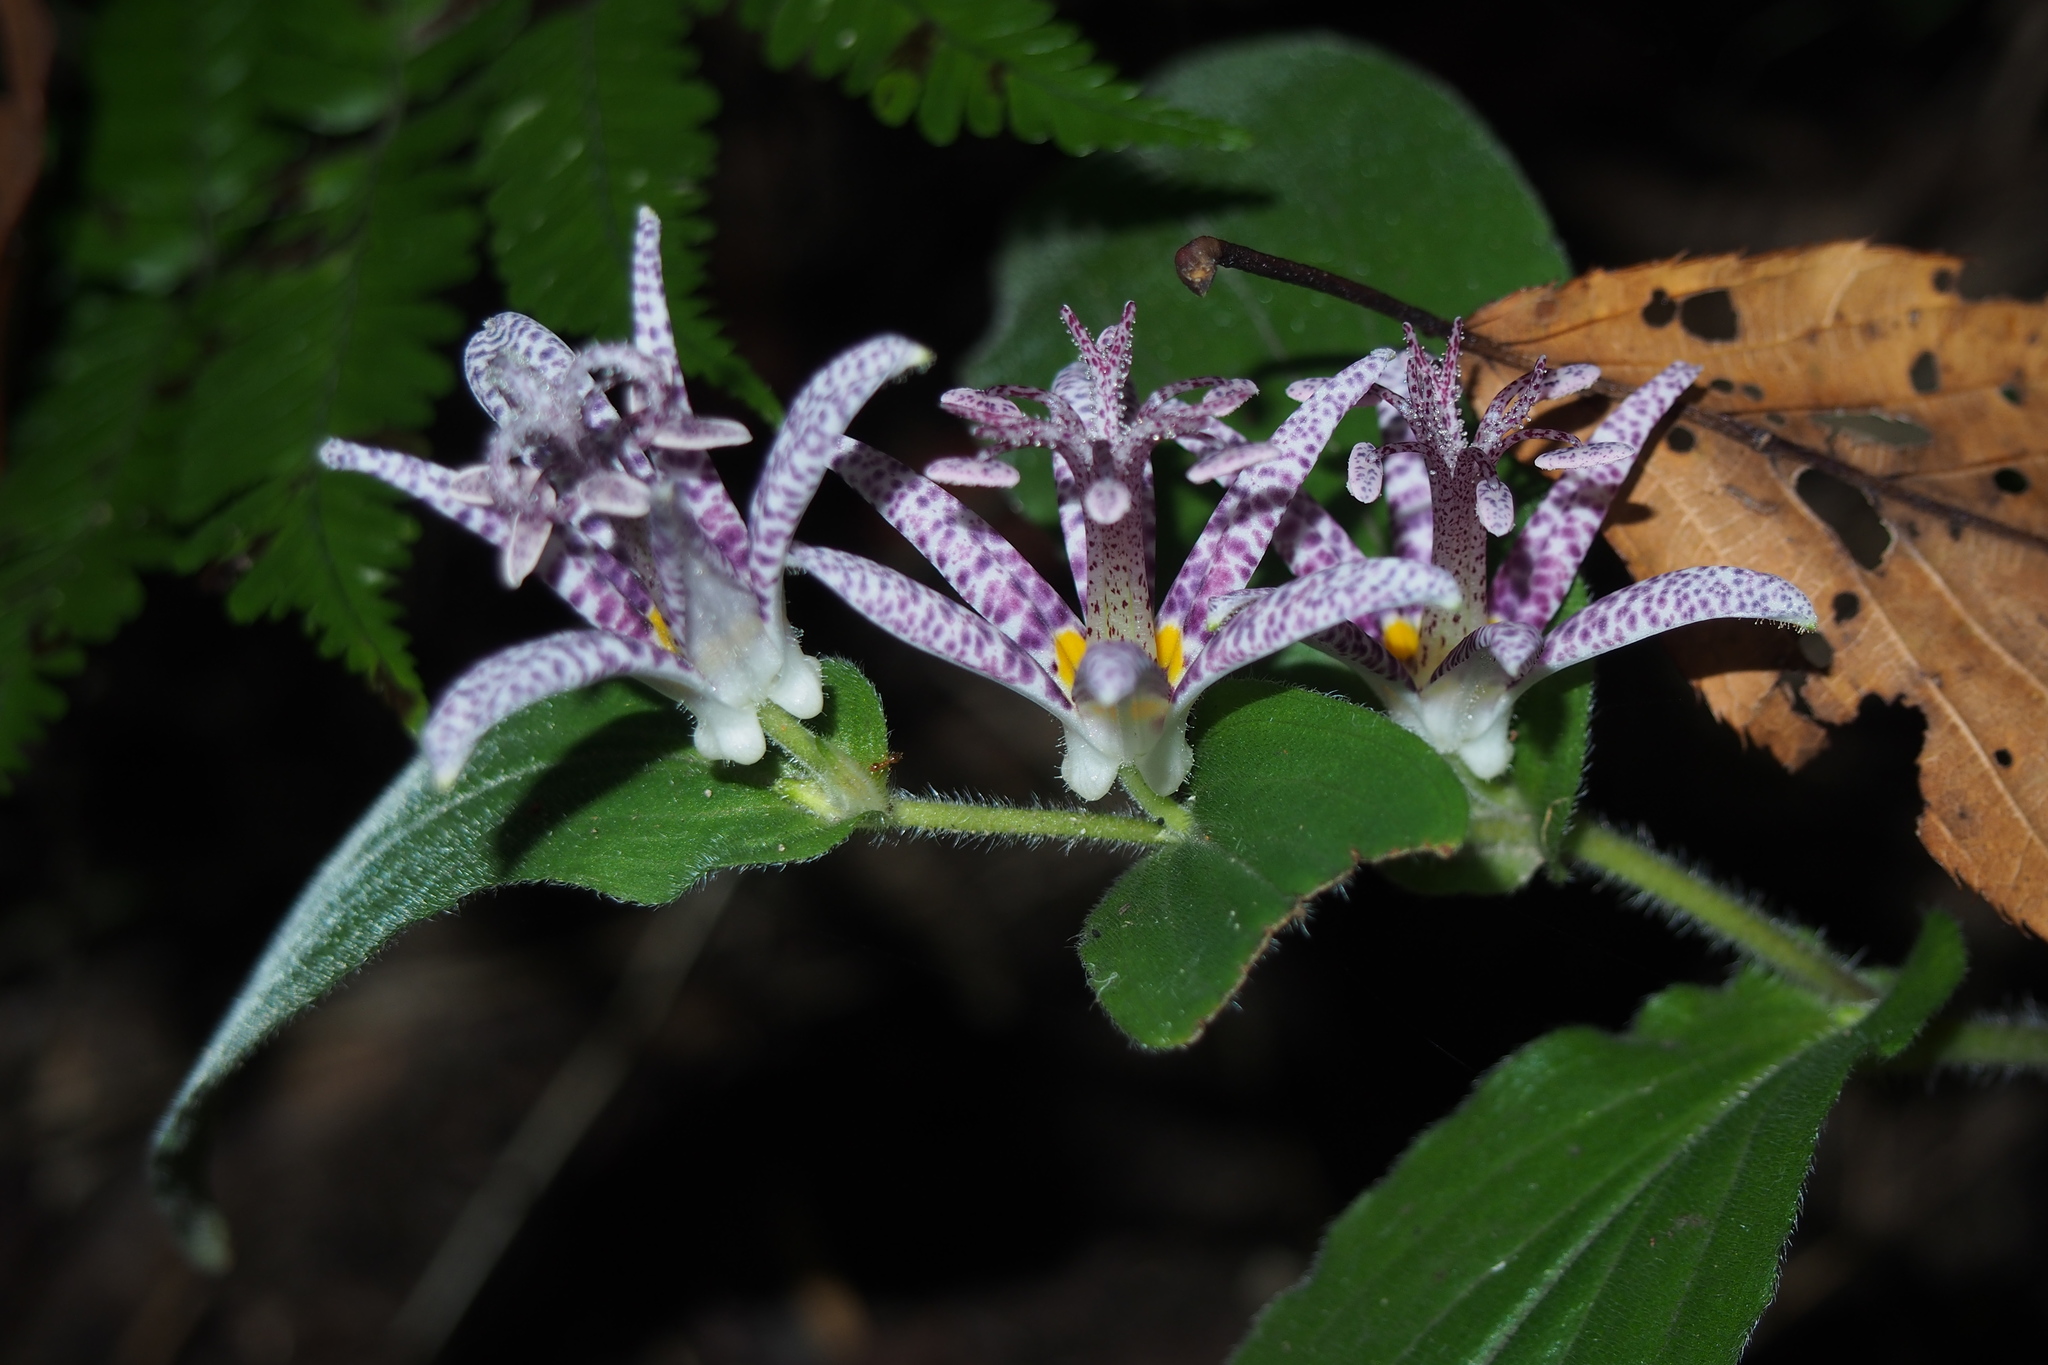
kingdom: Plantae
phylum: Tracheophyta
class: Liliopsida
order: Liliales
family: Liliaceae
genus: Tricyrtis
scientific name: Tricyrtis hirta
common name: Toadlily
